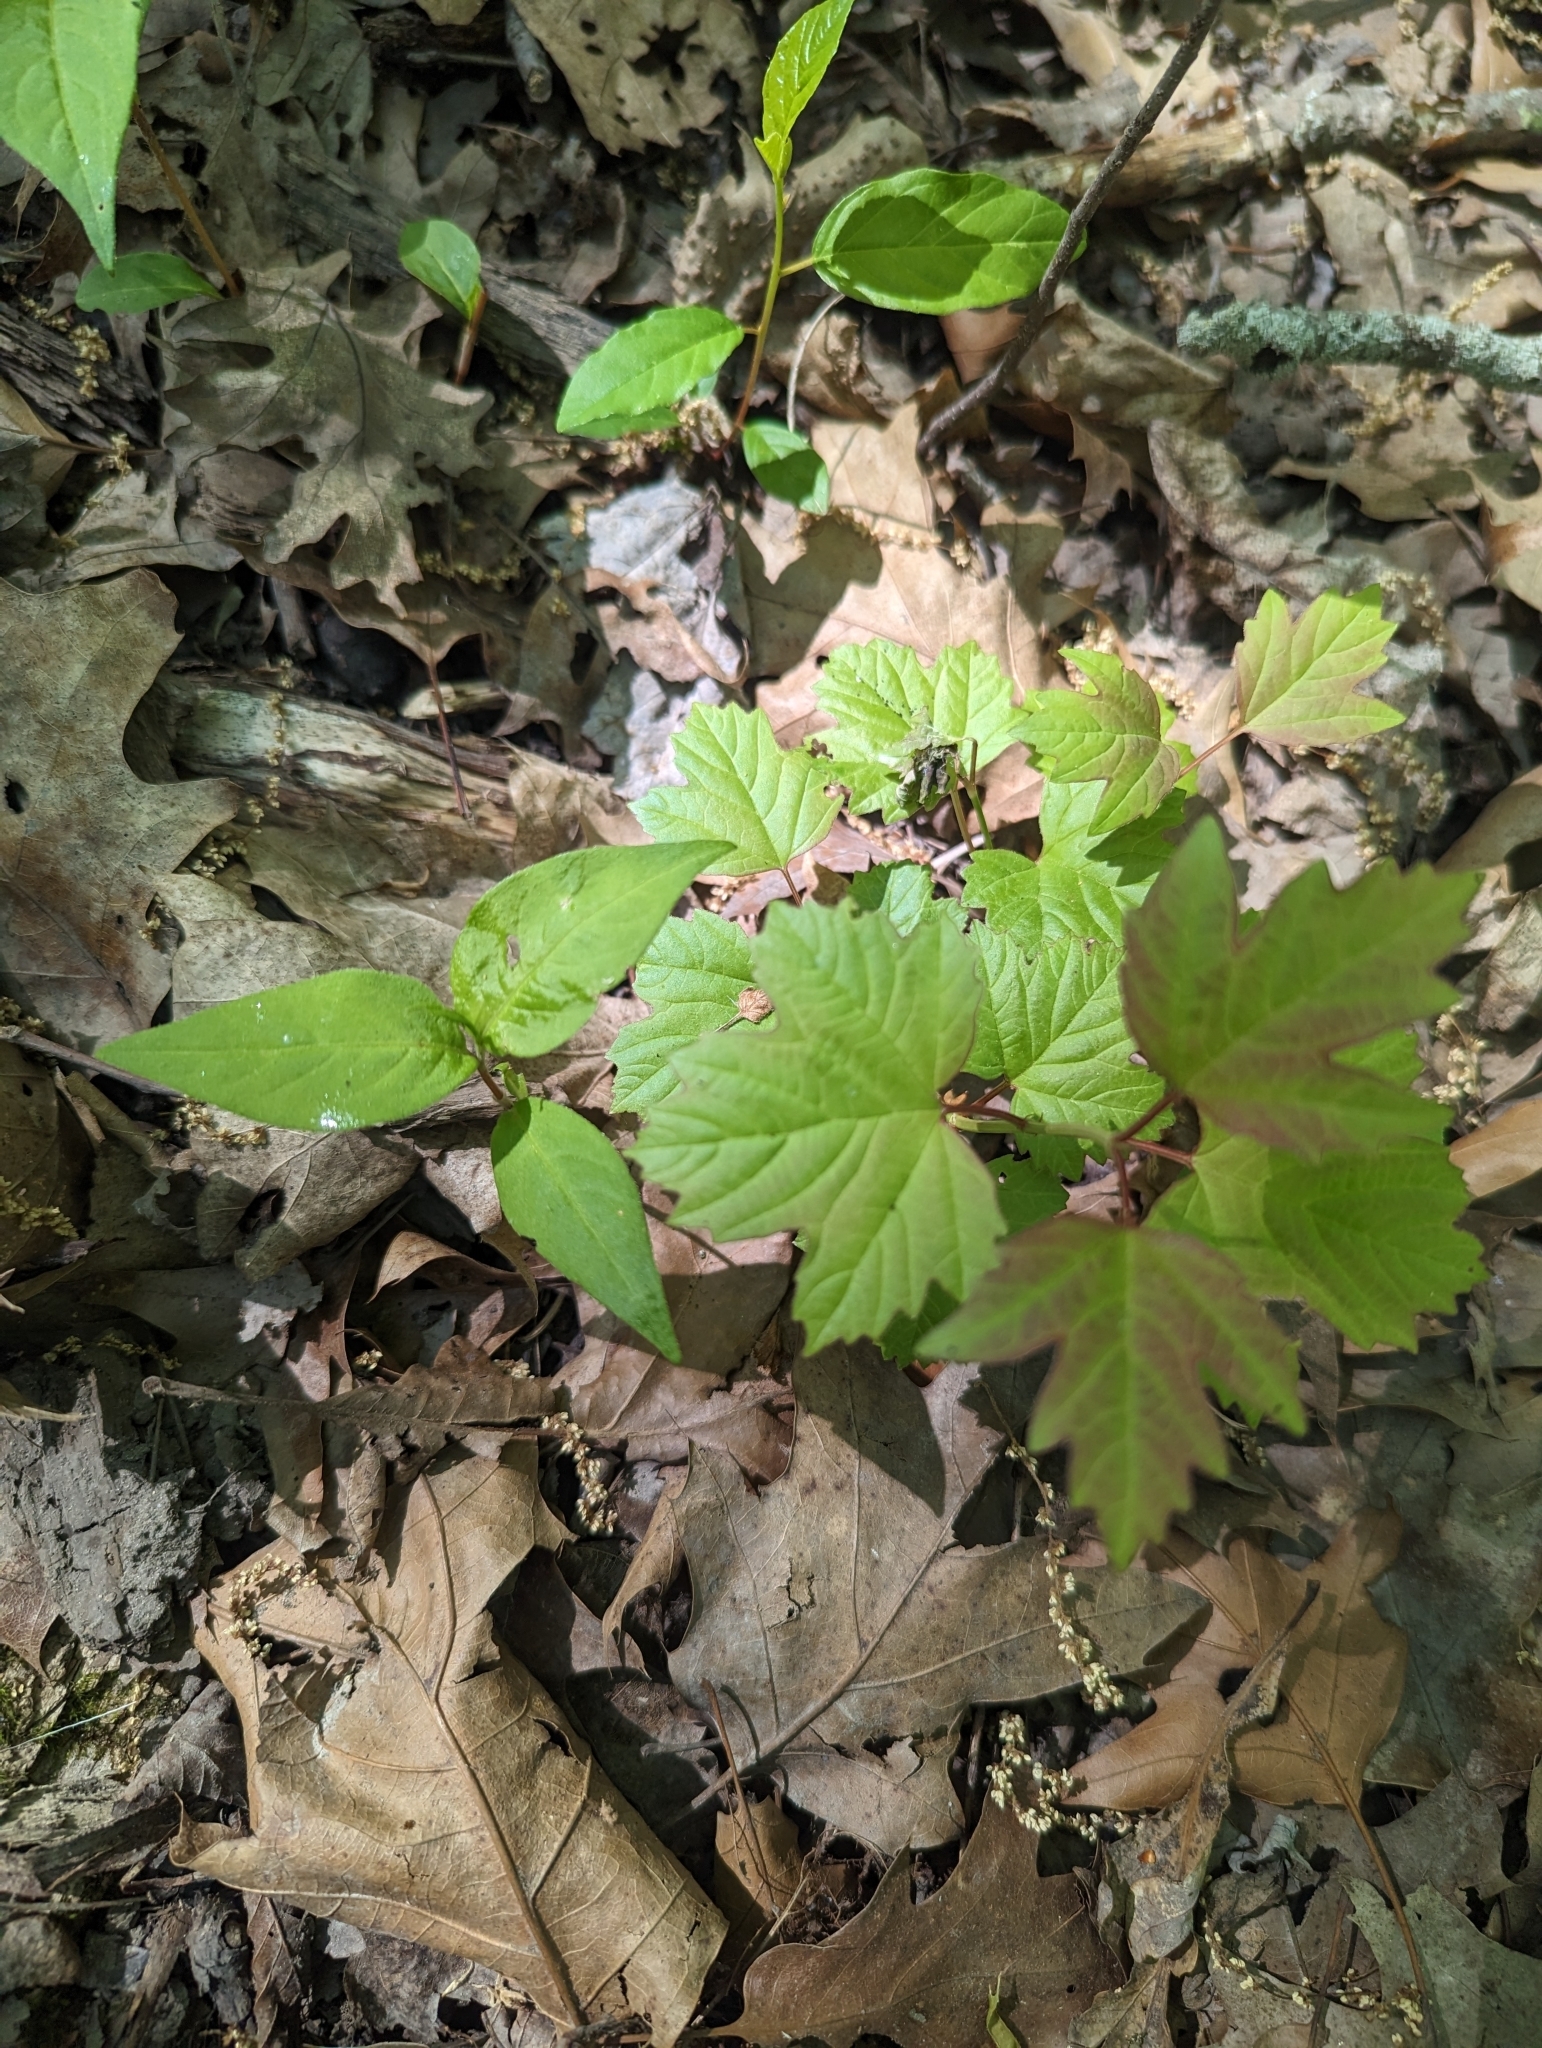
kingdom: Plantae
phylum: Tracheophyta
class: Magnoliopsida
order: Dipsacales
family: Viburnaceae
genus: Viburnum
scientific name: Viburnum acerifolium
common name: Dockmackie
